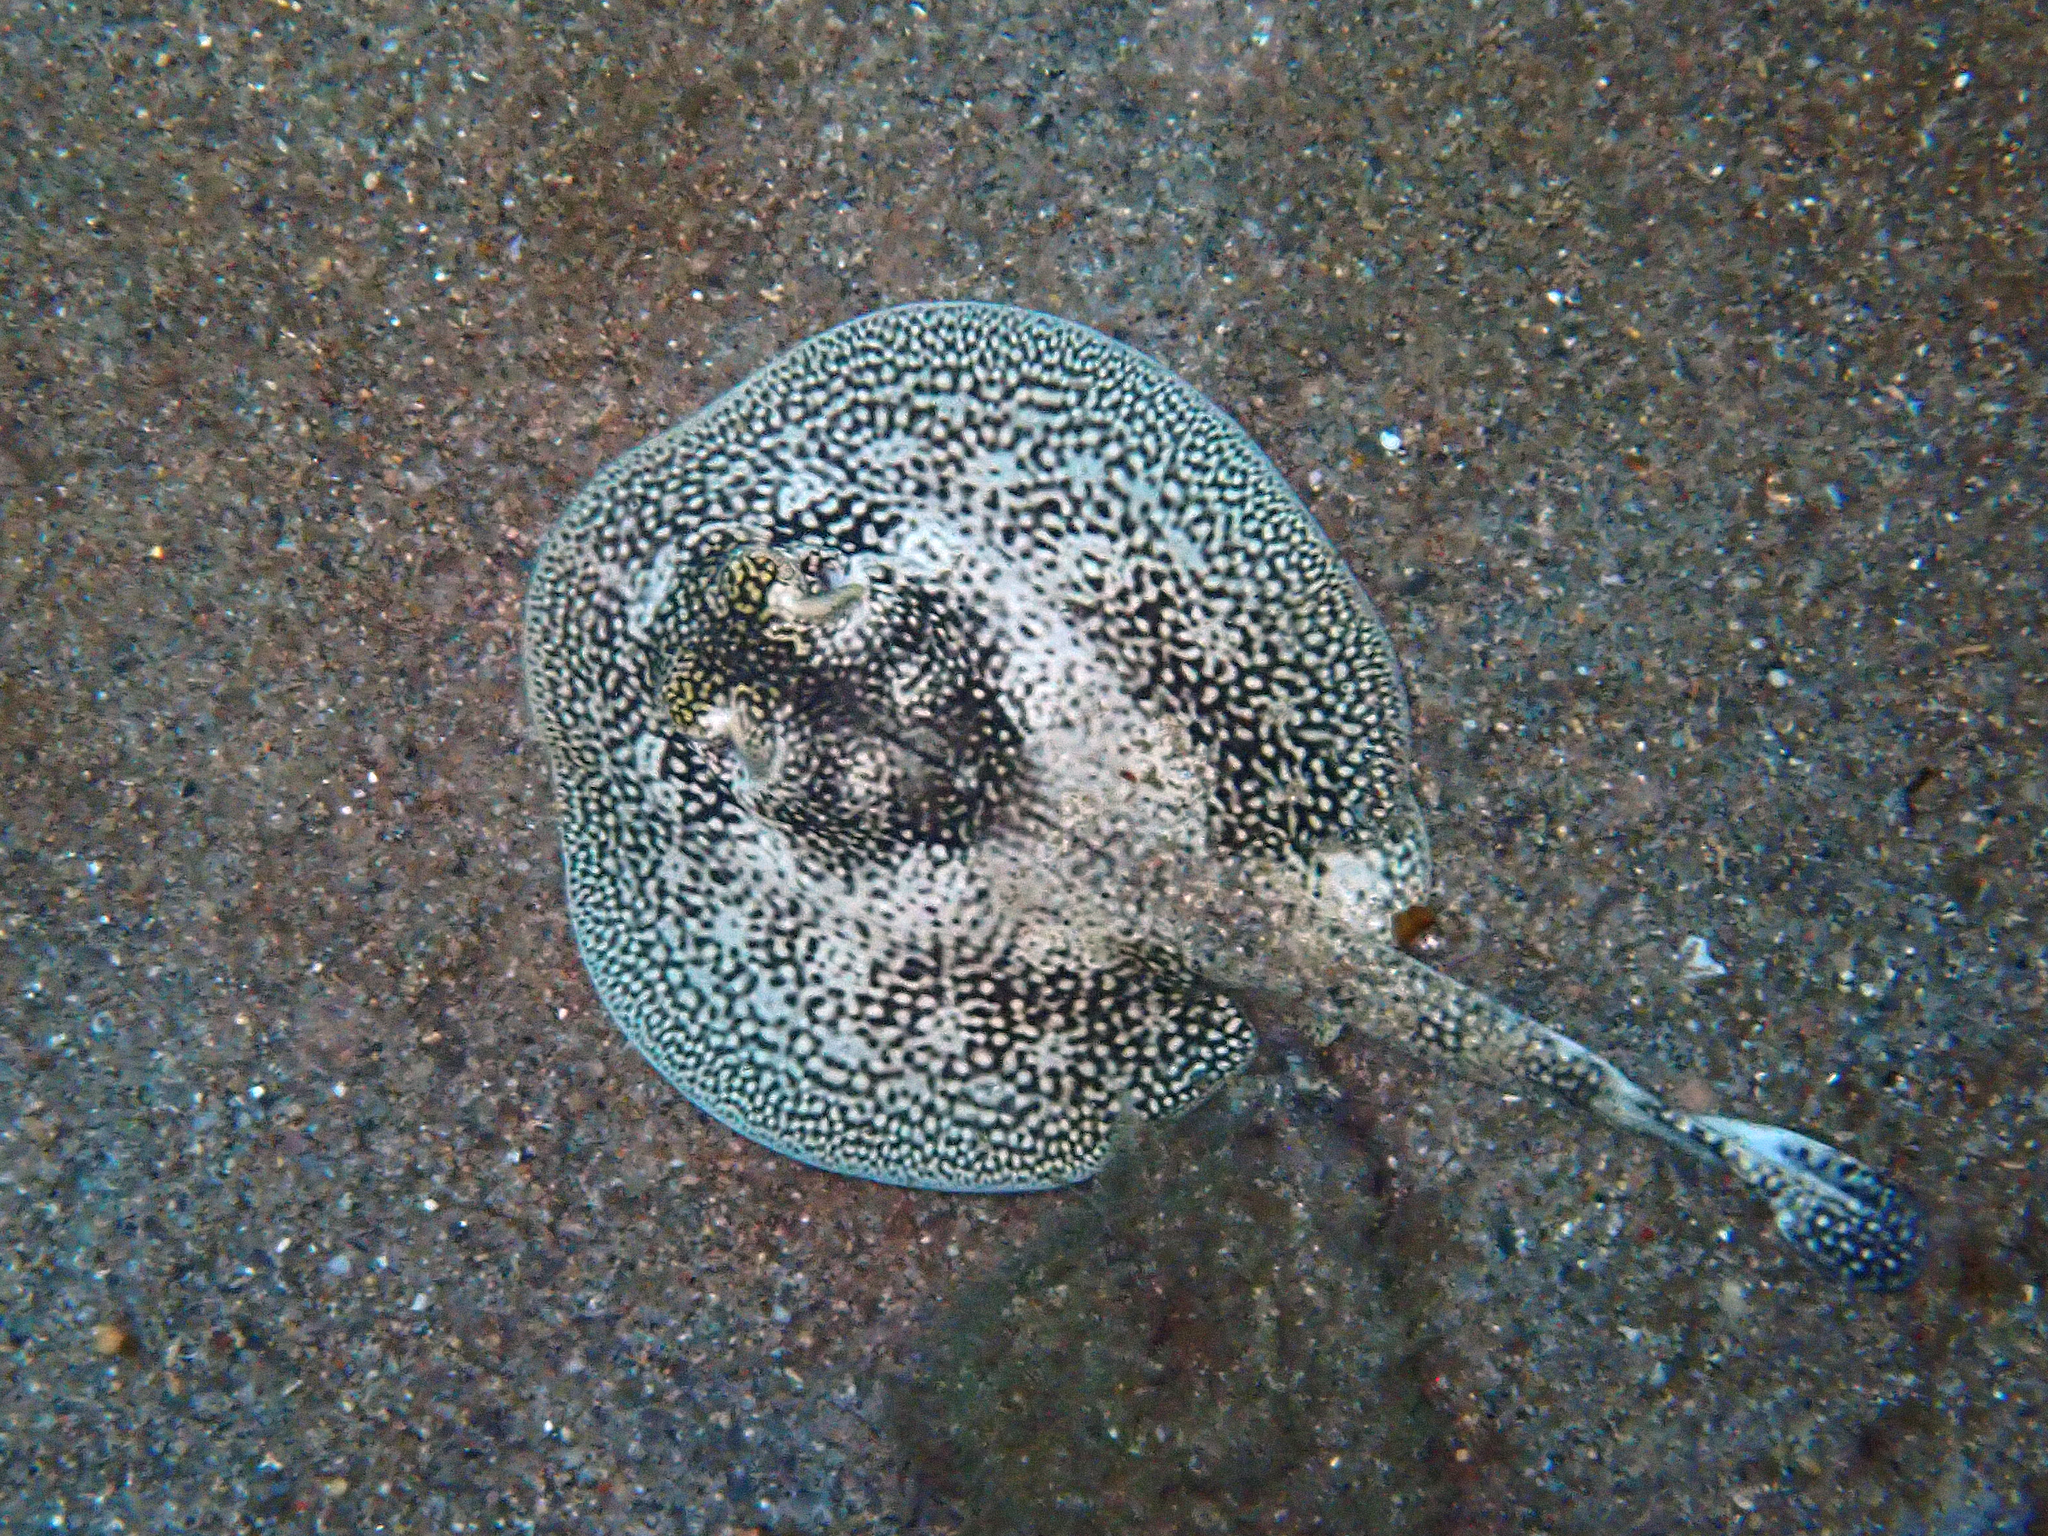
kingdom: Animalia
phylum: Chordata
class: Elasmobranchii
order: Myliobatiformes
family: Urotrygonidae
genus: Urobatis
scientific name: Urobatis jamaicensis
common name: Yellow stingray
